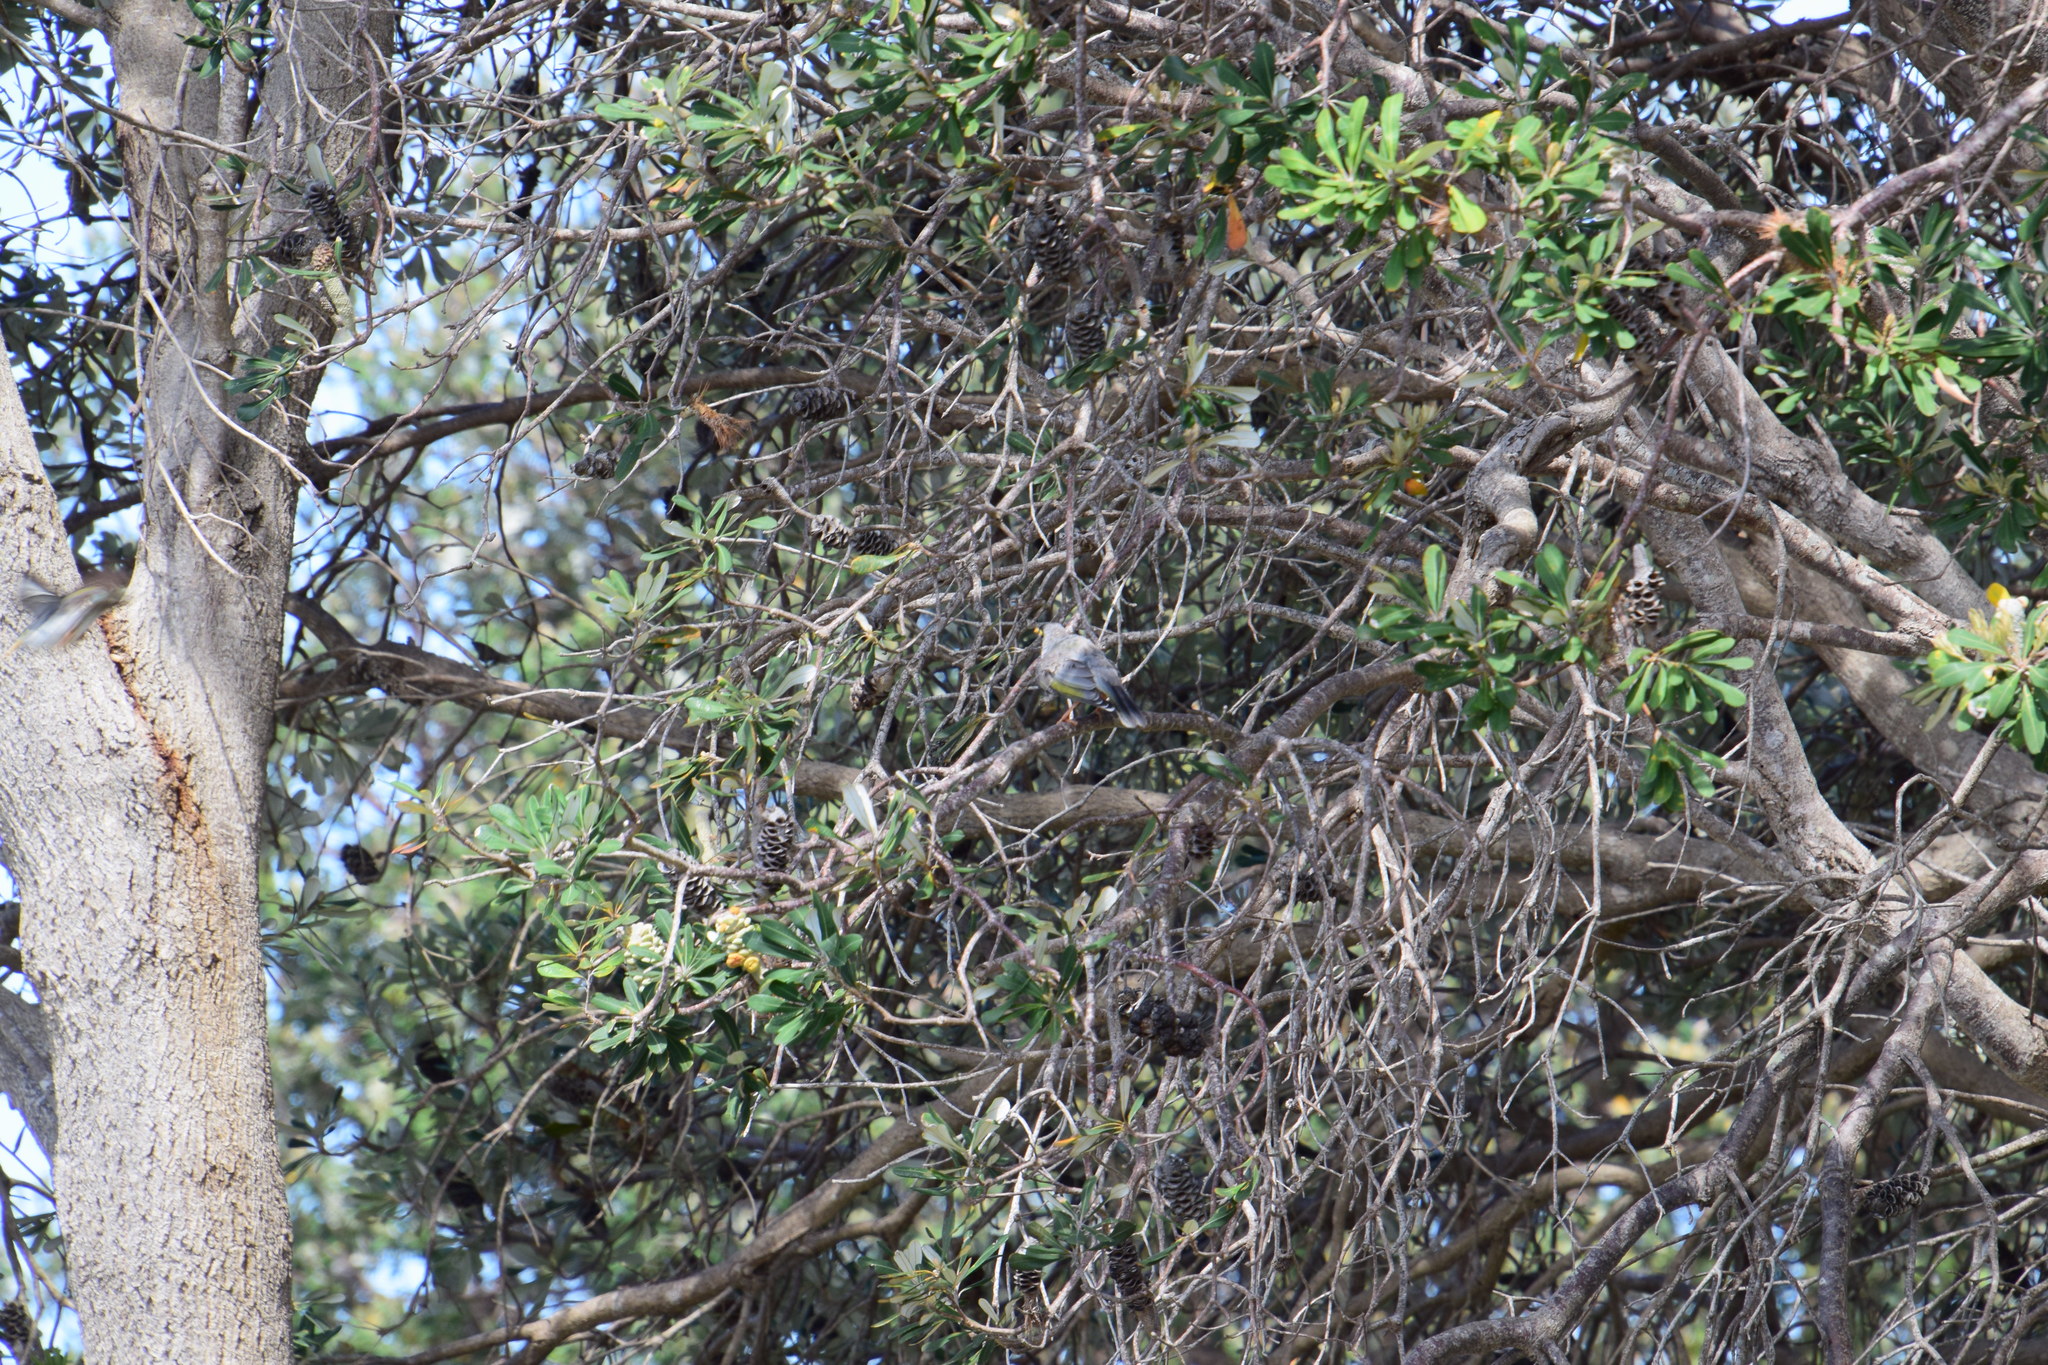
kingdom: Animalia
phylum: Chordata
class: Aves
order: Passeriformes
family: Meliphagidae
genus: Manorina
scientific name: Manorina melanocephala
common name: Noisy miner
